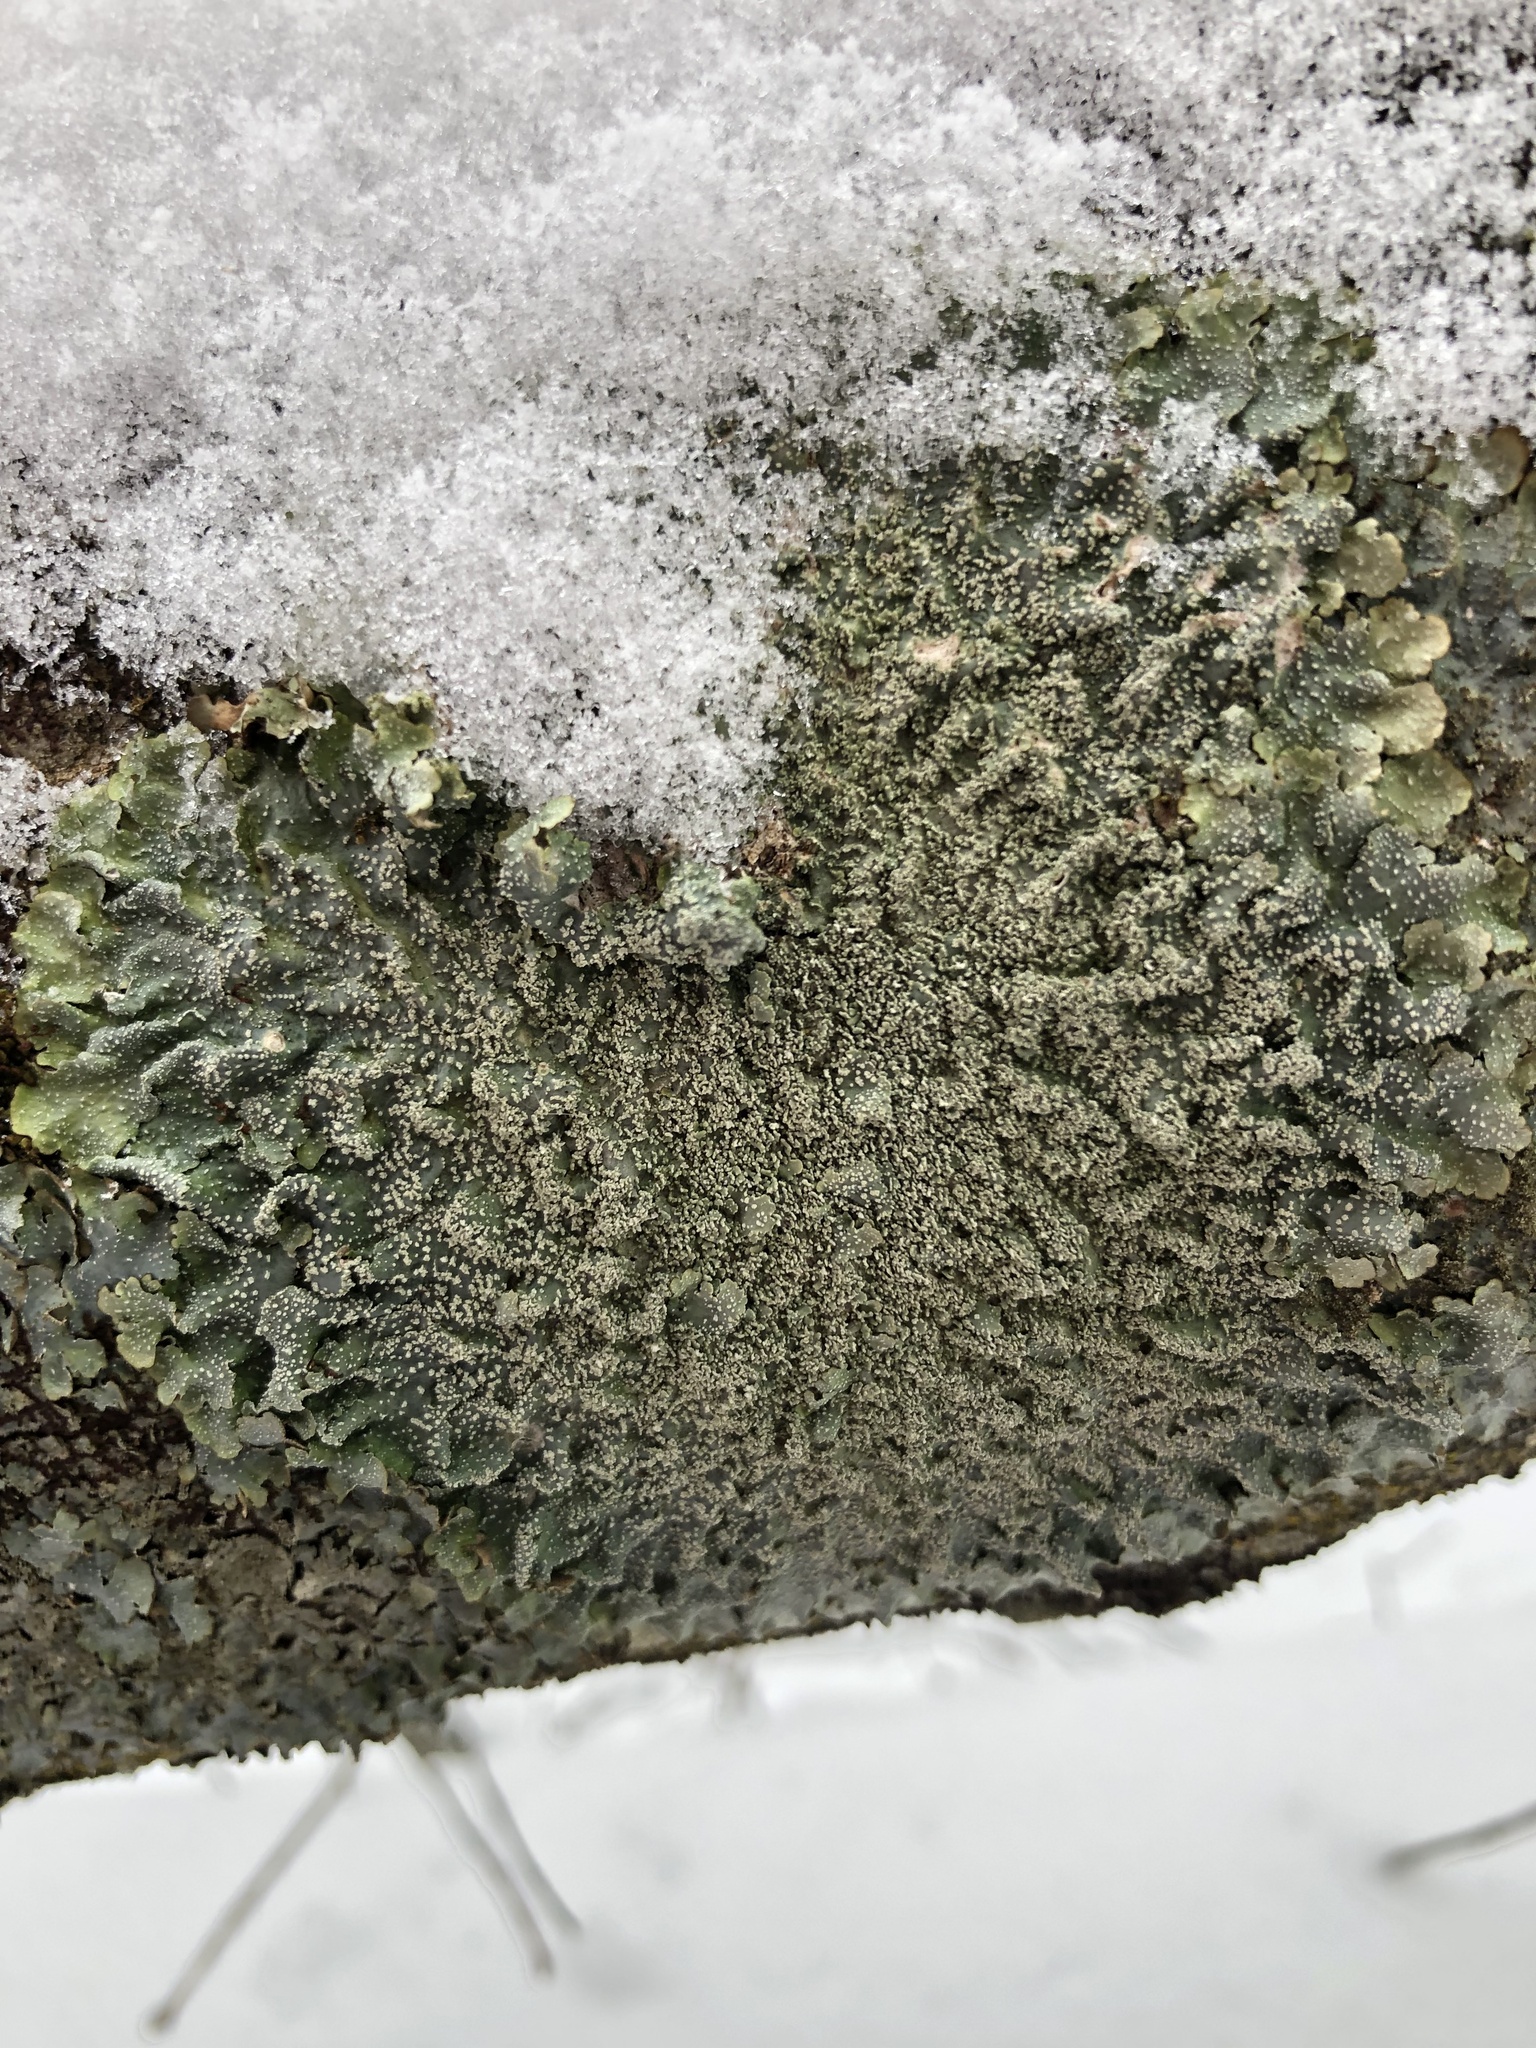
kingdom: Fungi
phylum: Ascomycota
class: Lecanoromycetes
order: Lecanorales
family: Parmeliaceae
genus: Punctelia
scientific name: Punctelia missouriensis
